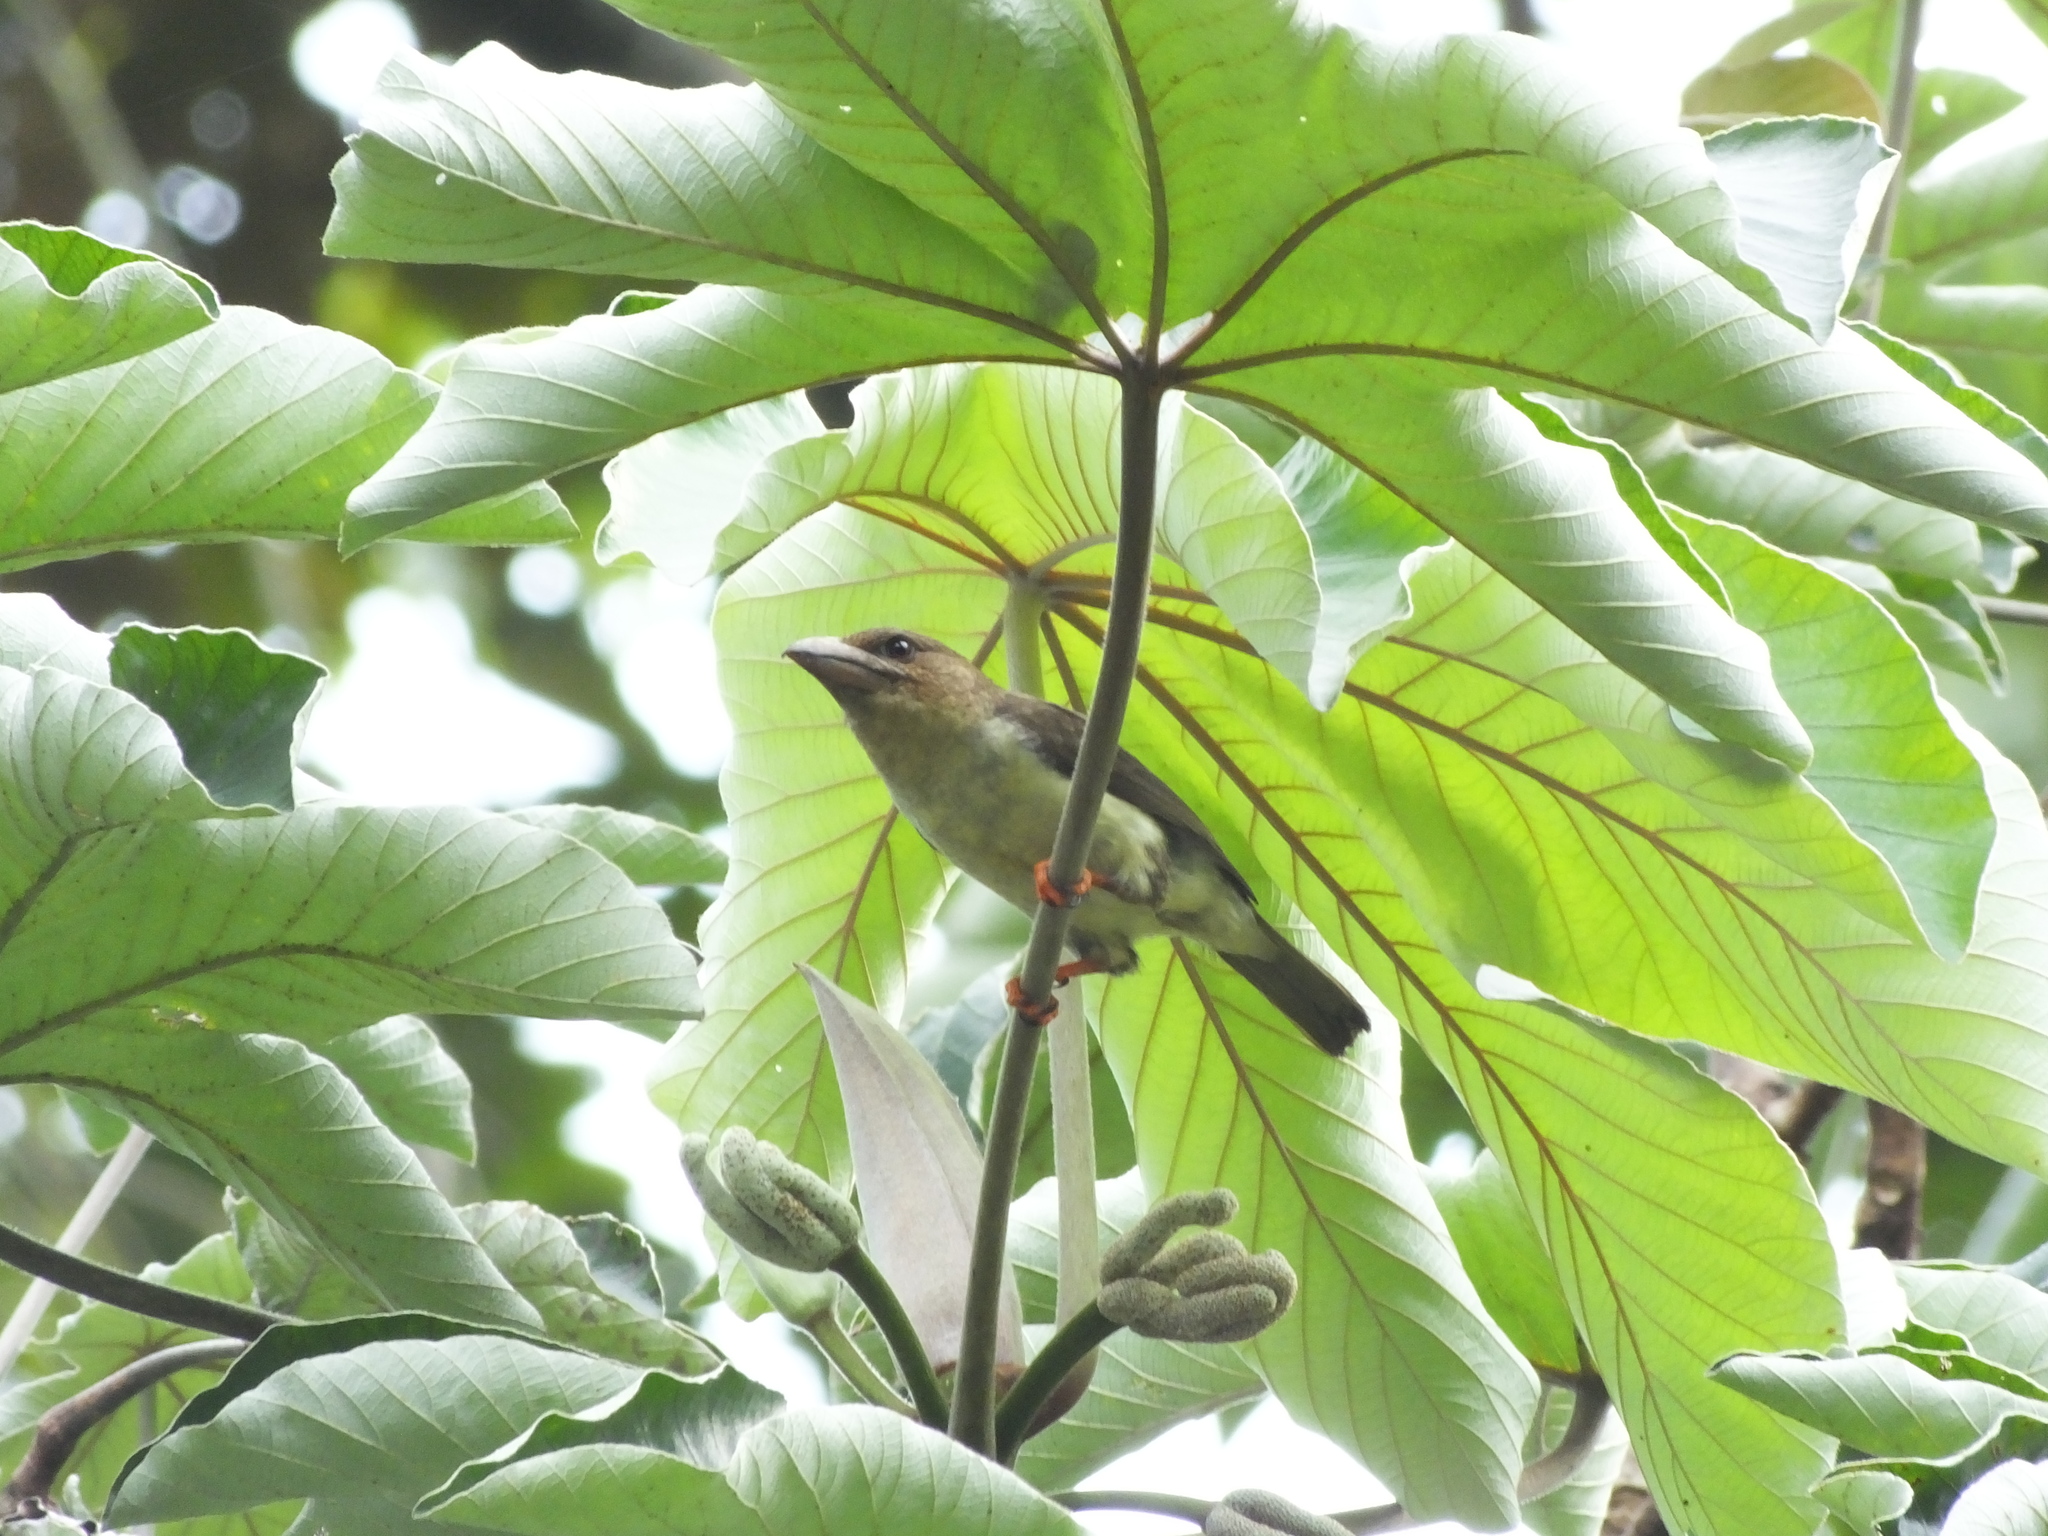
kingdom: Animalia
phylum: Chordata
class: Aves
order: Piciformes
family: Megalaimidae
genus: Caloramphus
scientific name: Caloramphus hayii
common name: Sooty barbet
